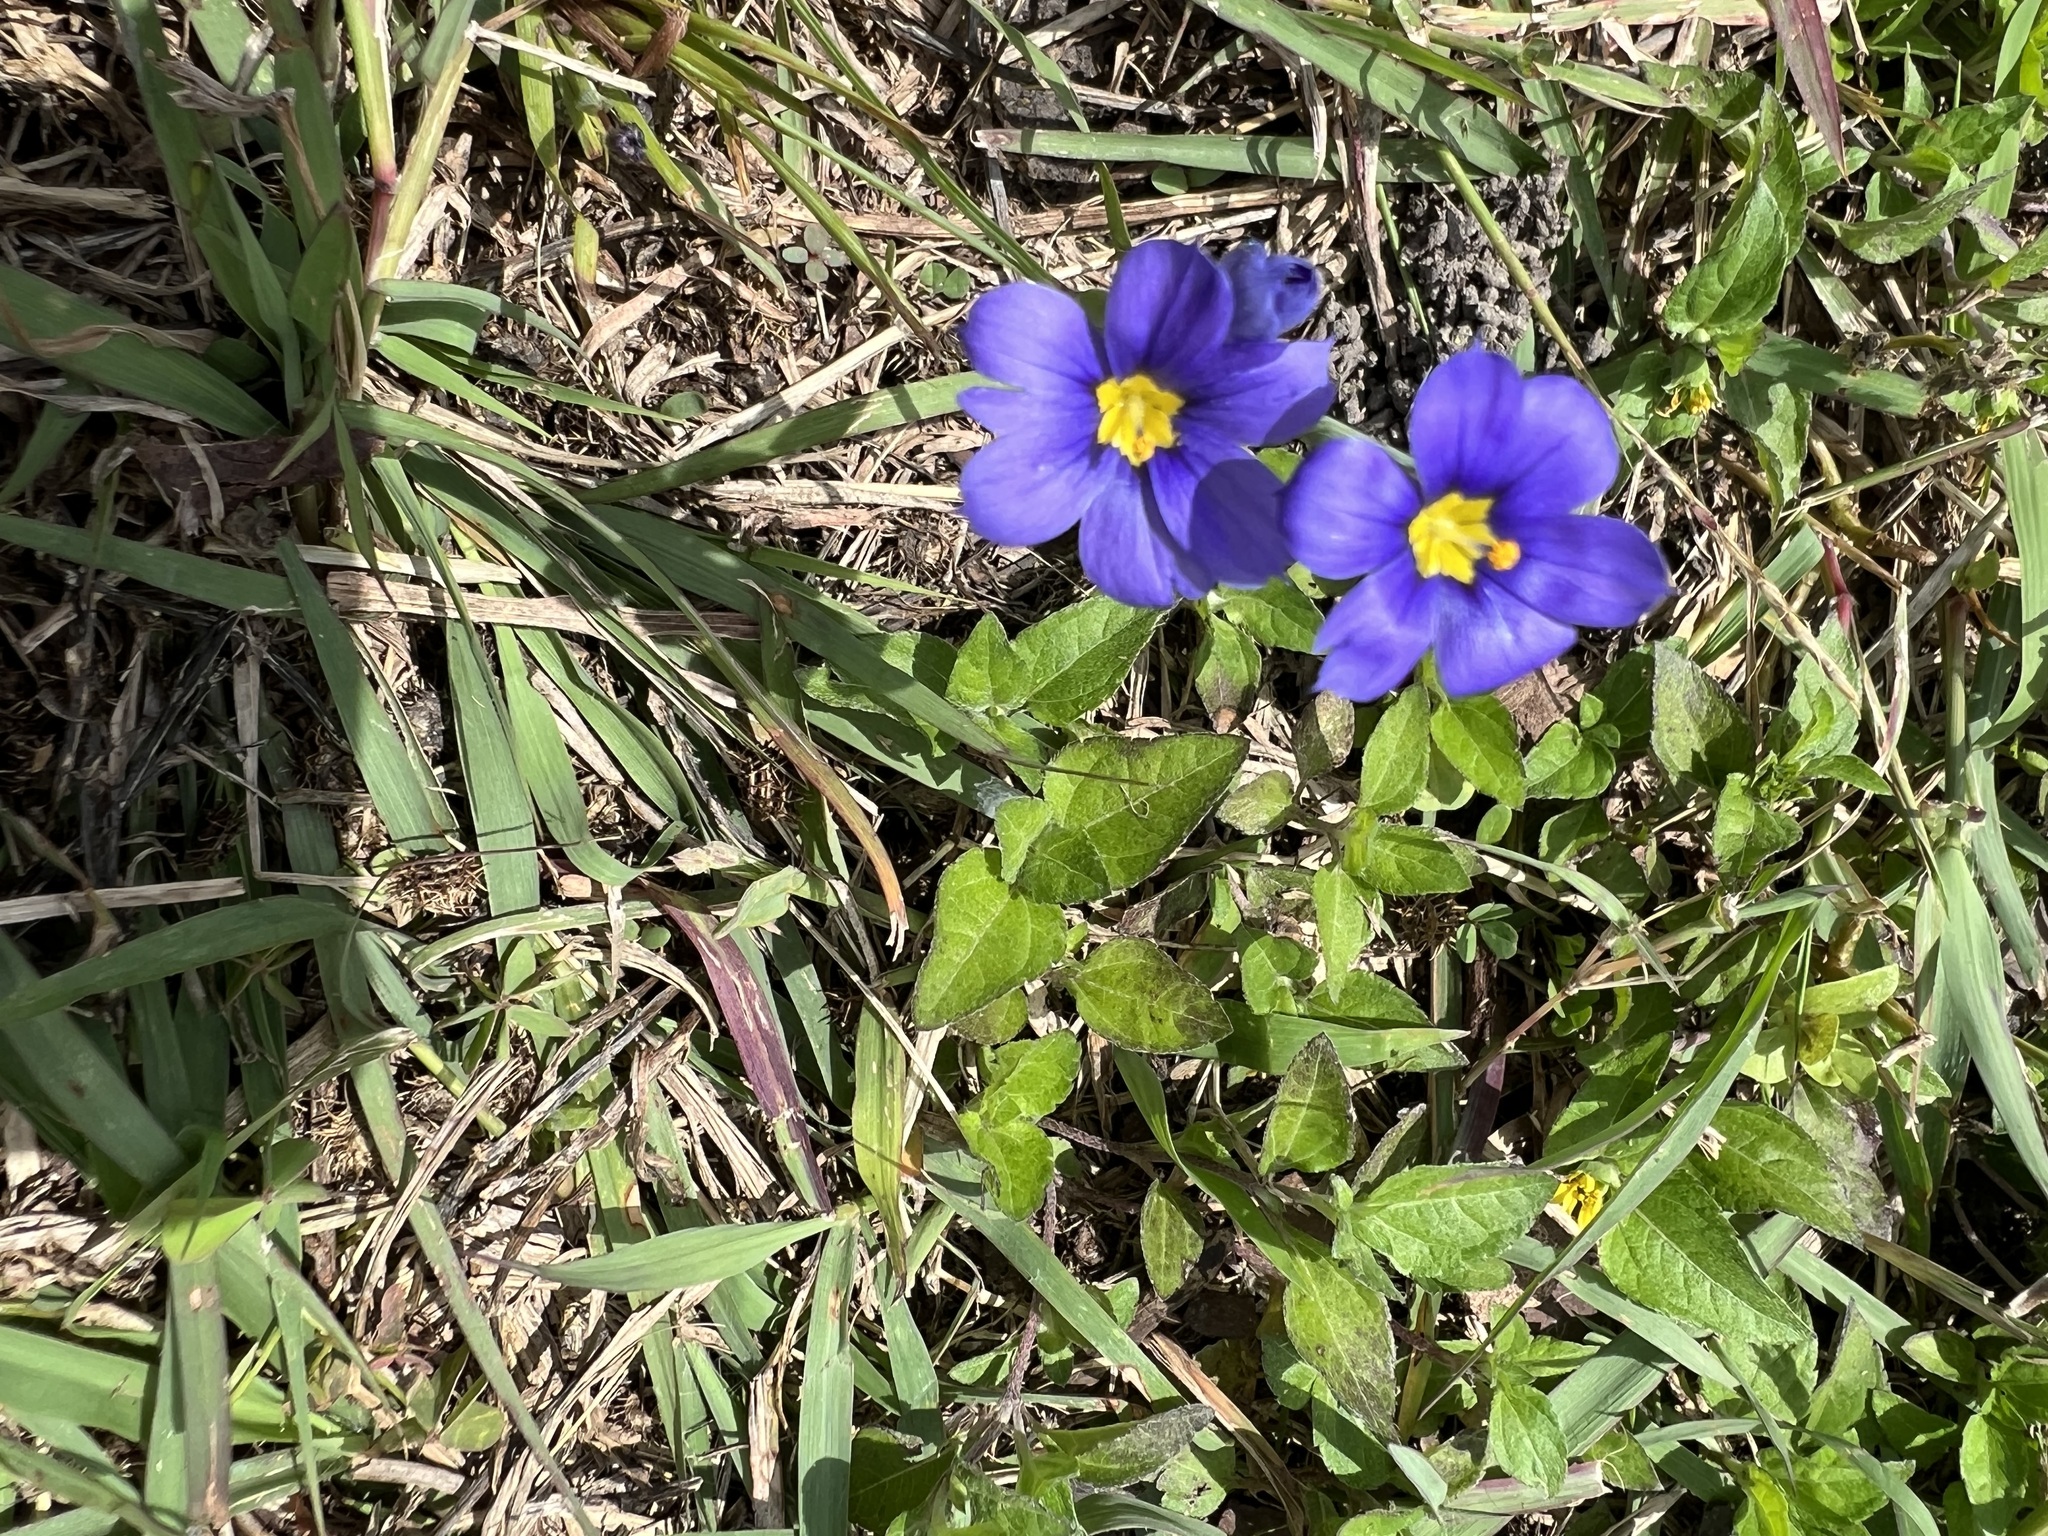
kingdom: Plantae
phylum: Tracheophyta
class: Magnoliopsida
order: Ericales
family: Primulaceae
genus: Lysimachia
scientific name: Lysimachia foemina
